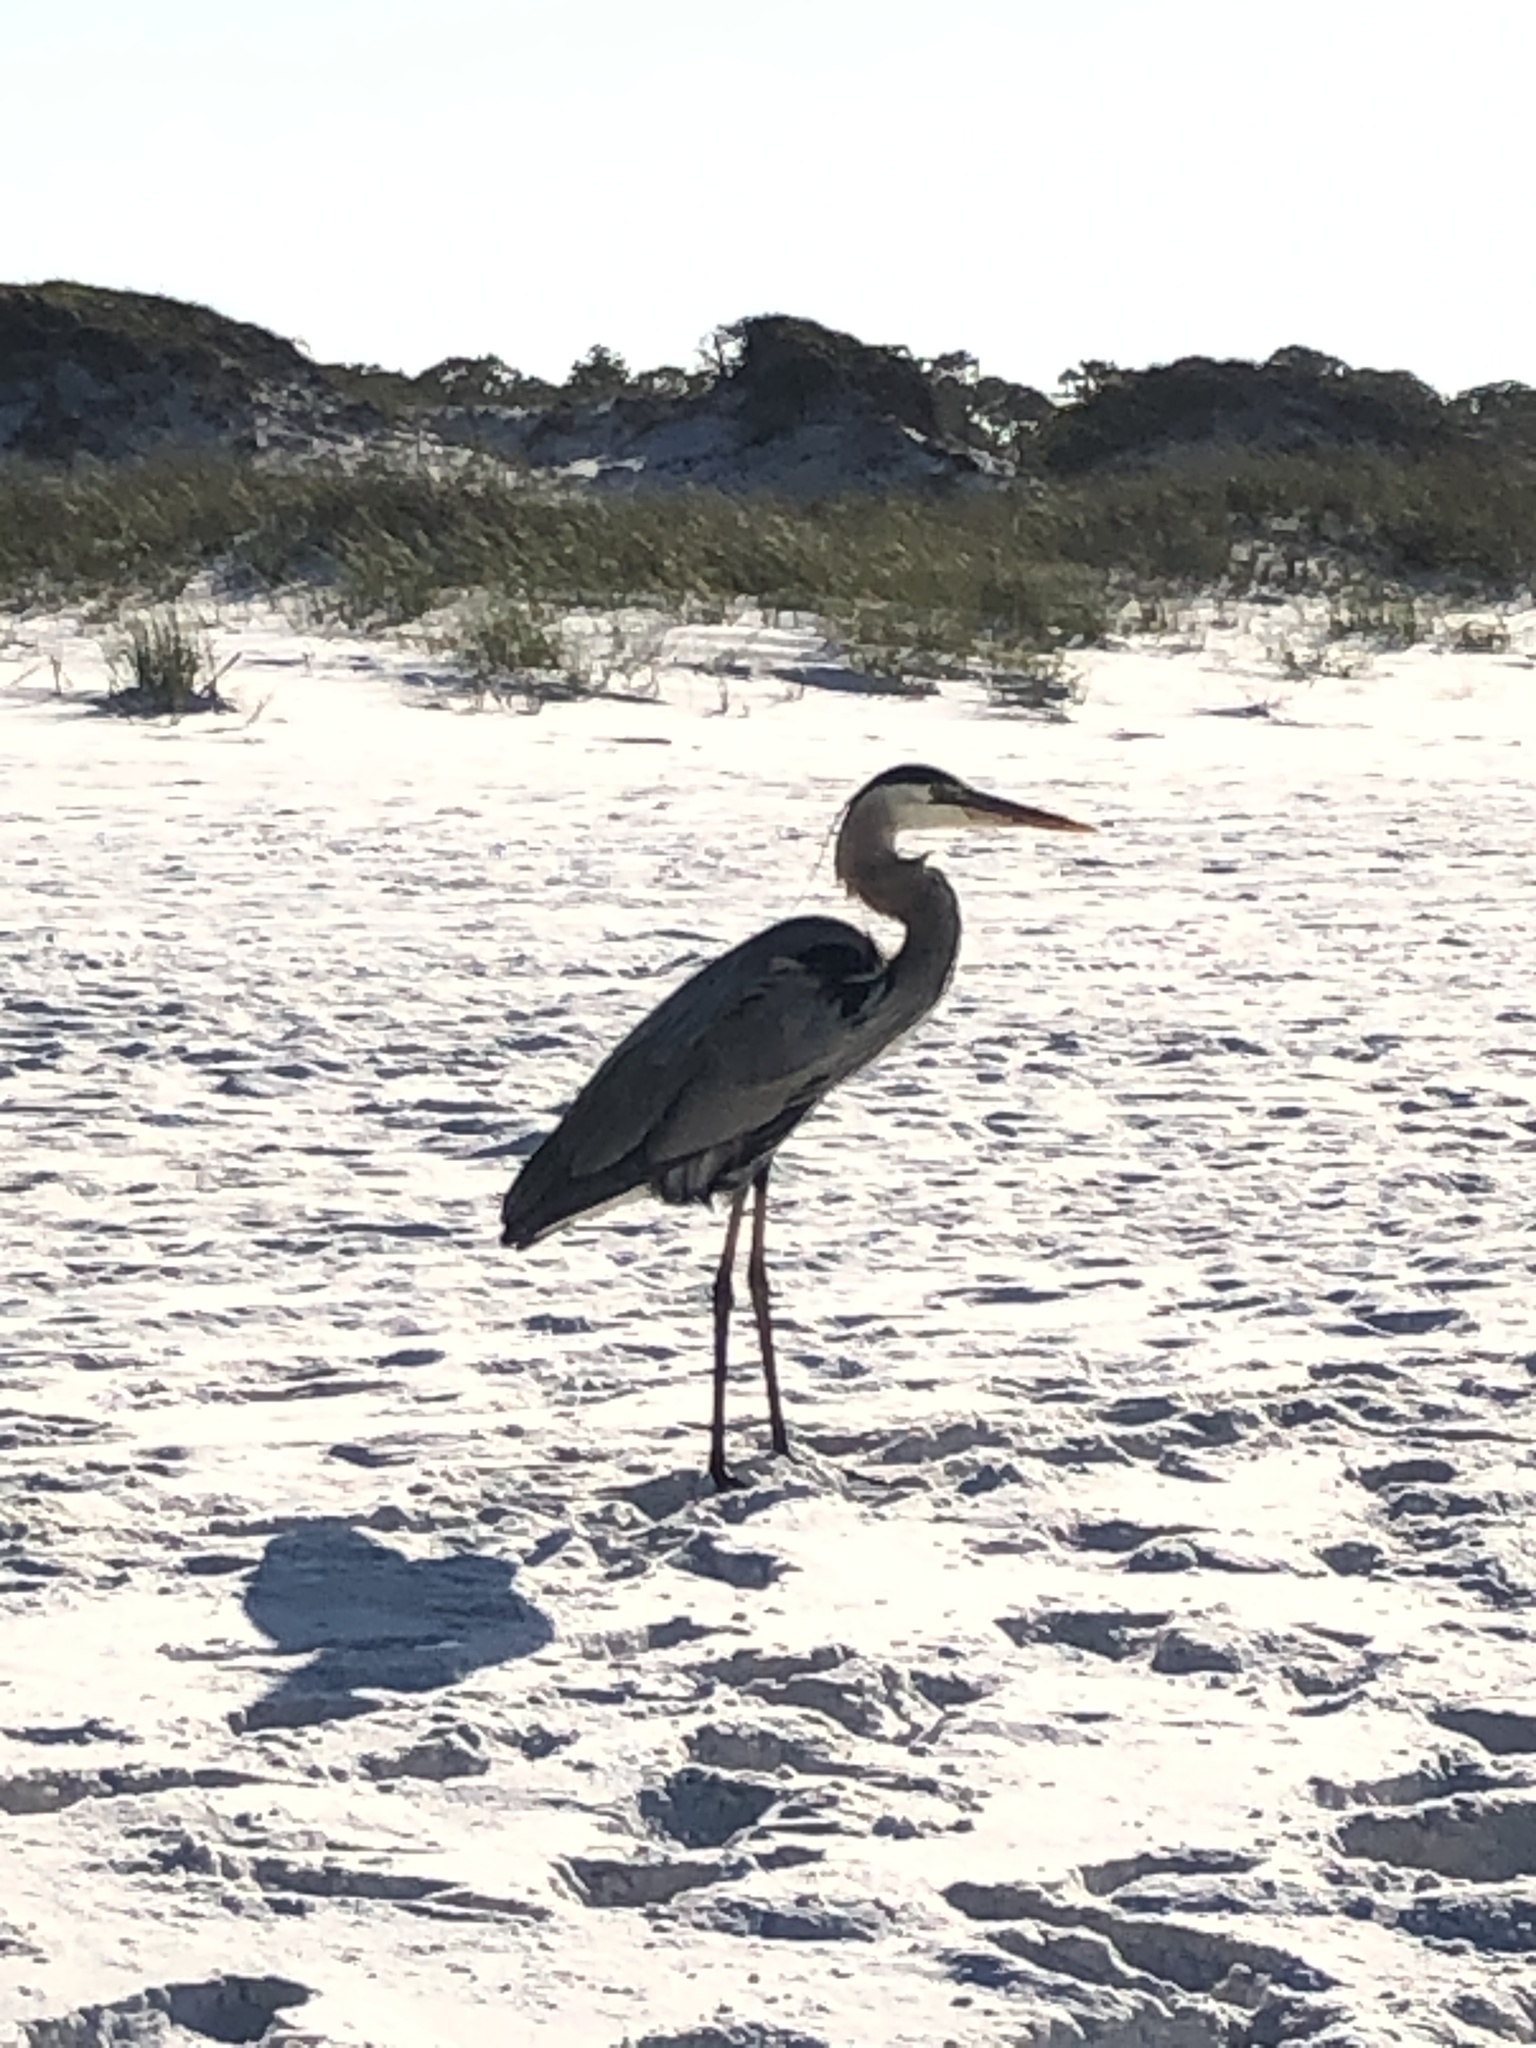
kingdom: Animalia
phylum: Chordata
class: Aves
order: Pelecaniformes
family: Ardeidae
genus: Ardea
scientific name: Ardea herodias
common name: Great blue heron
